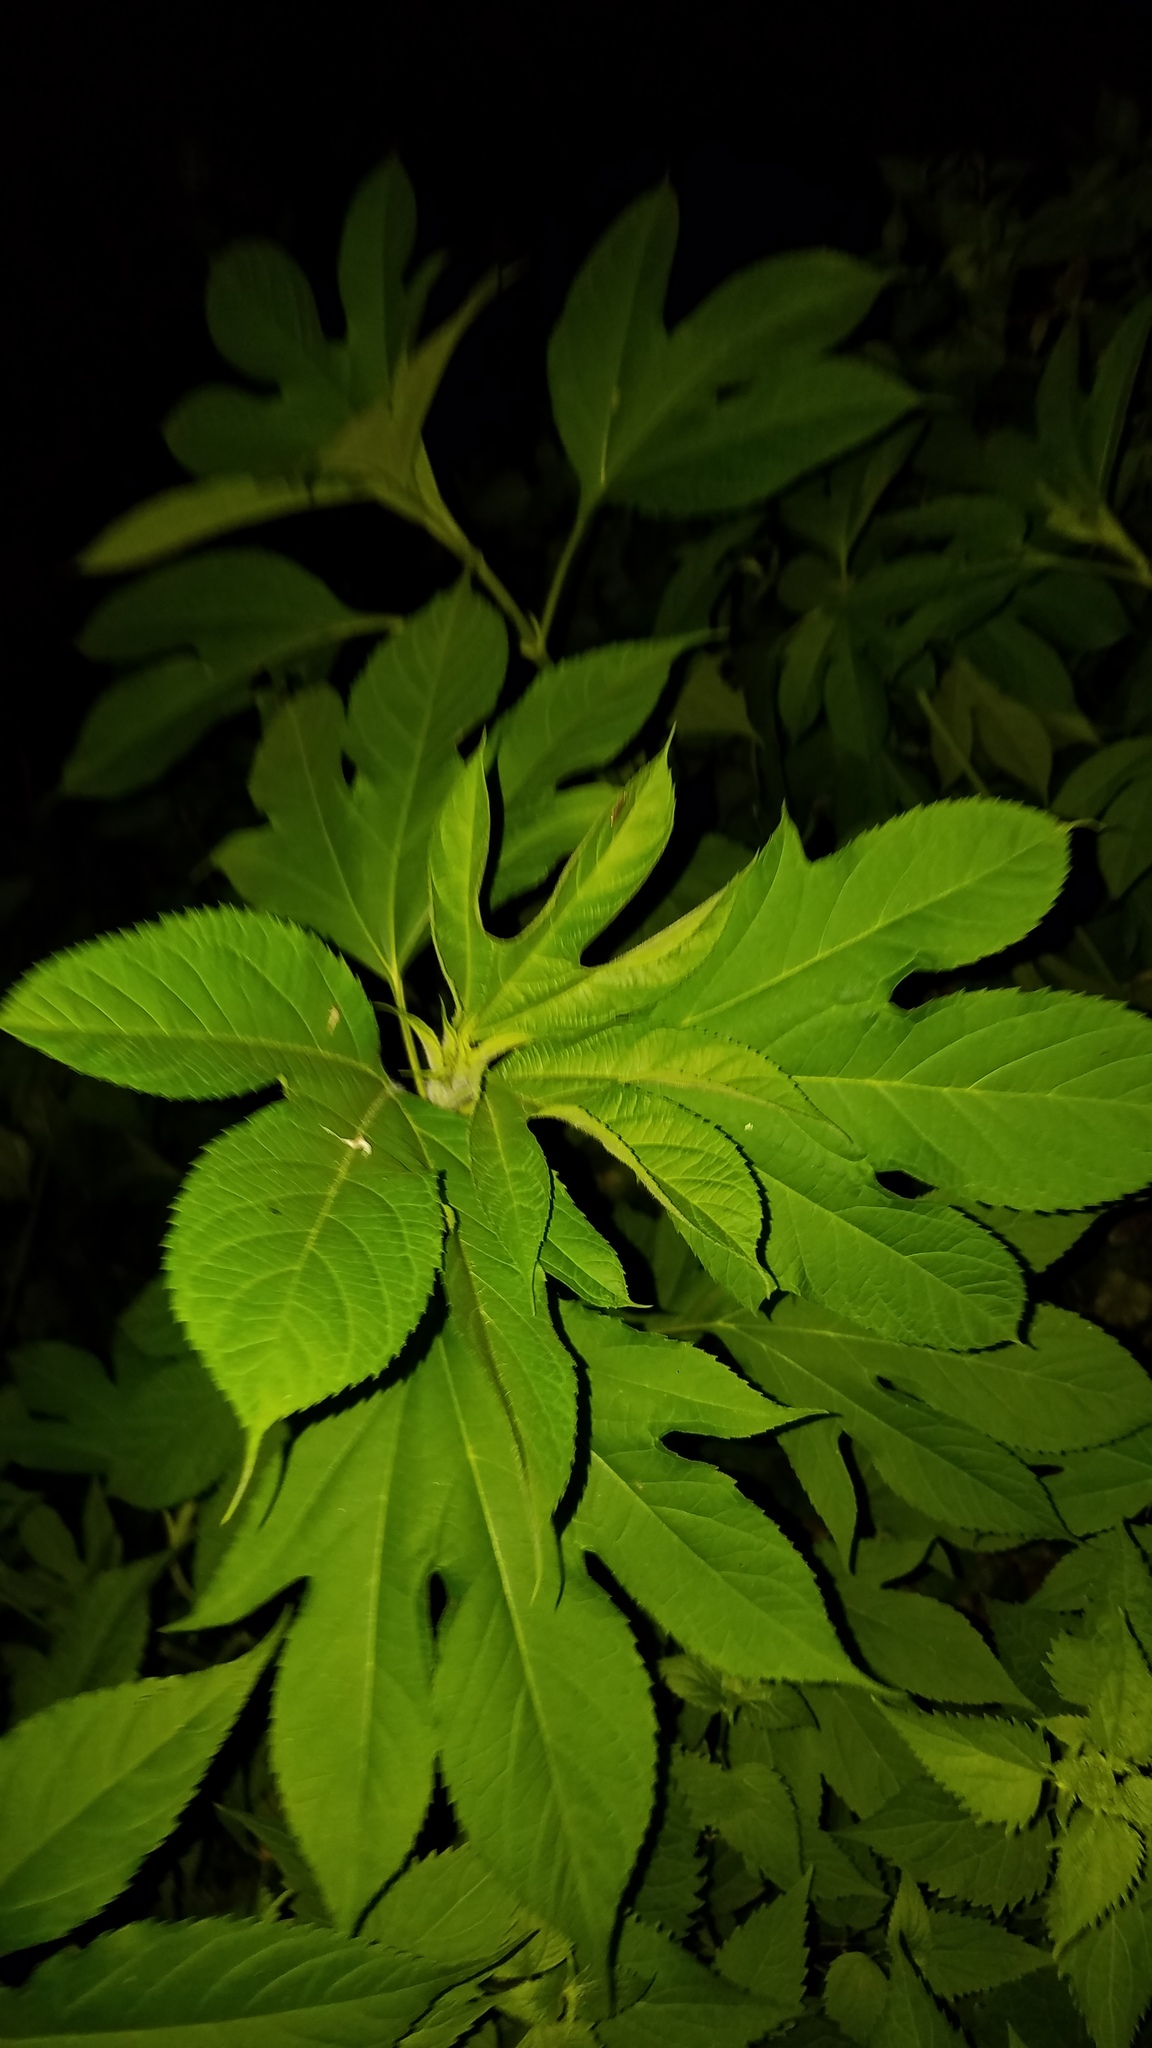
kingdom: Plantae
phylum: Tracheophyta
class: Magnoliopsida
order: Asterales
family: Asteraceae
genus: Ambrosia
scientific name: Ambrosia trifida
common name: Giant ragweed
